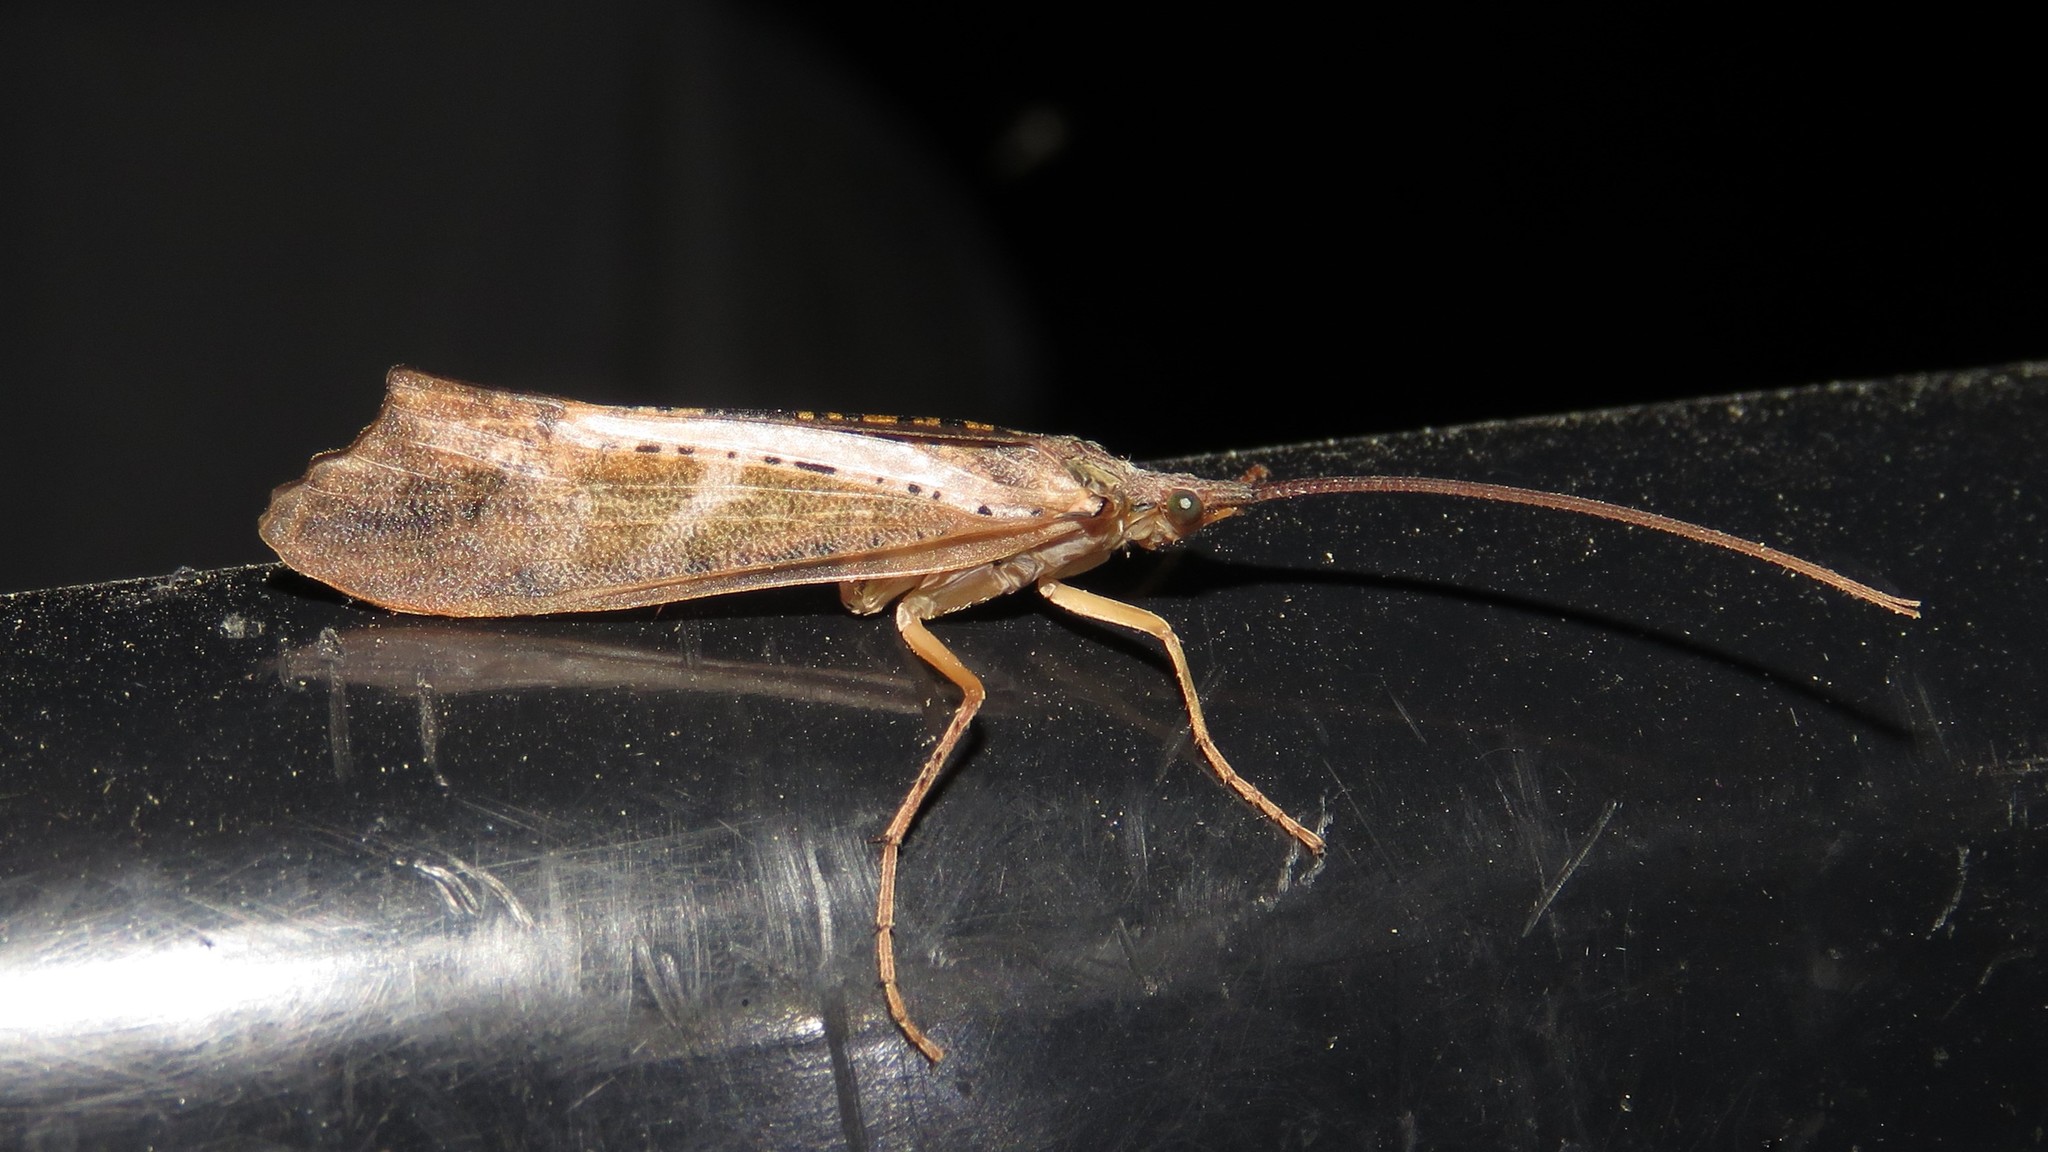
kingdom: Animalia
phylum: Arthropoda
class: Insecta
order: Trichoptera
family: Limnephilidae
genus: Nemotaulius
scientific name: Nemotaulius hostilis
